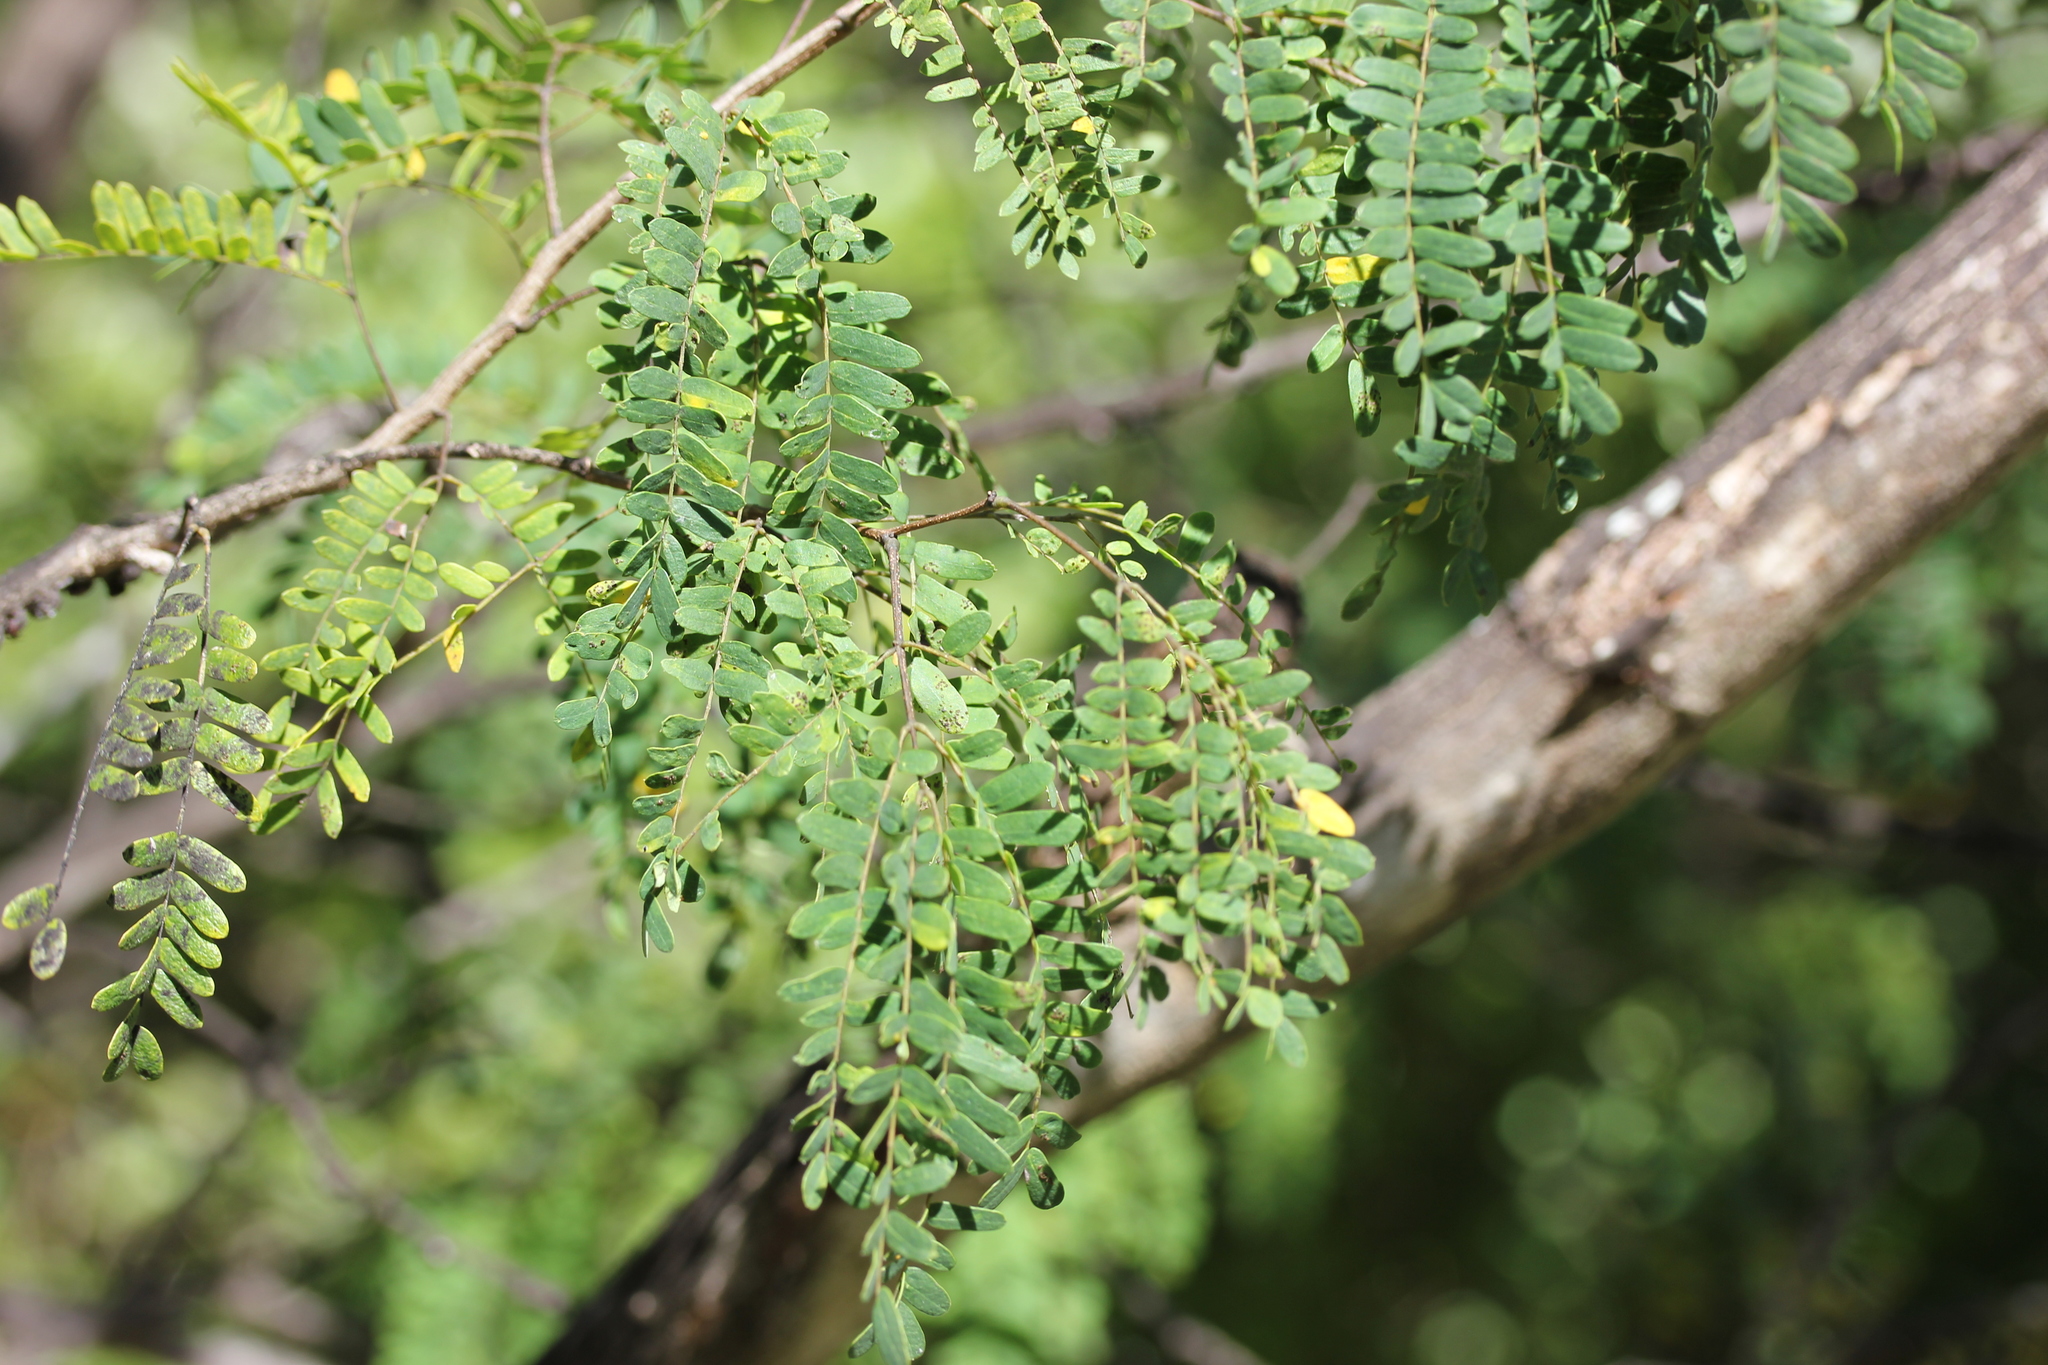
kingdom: Plantae
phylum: Tracheophyta
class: Magnoliopsida
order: Fabales
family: Fabaceae
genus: Lysiloma
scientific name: Lysiloma latisiliquum
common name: Wild tamarind
